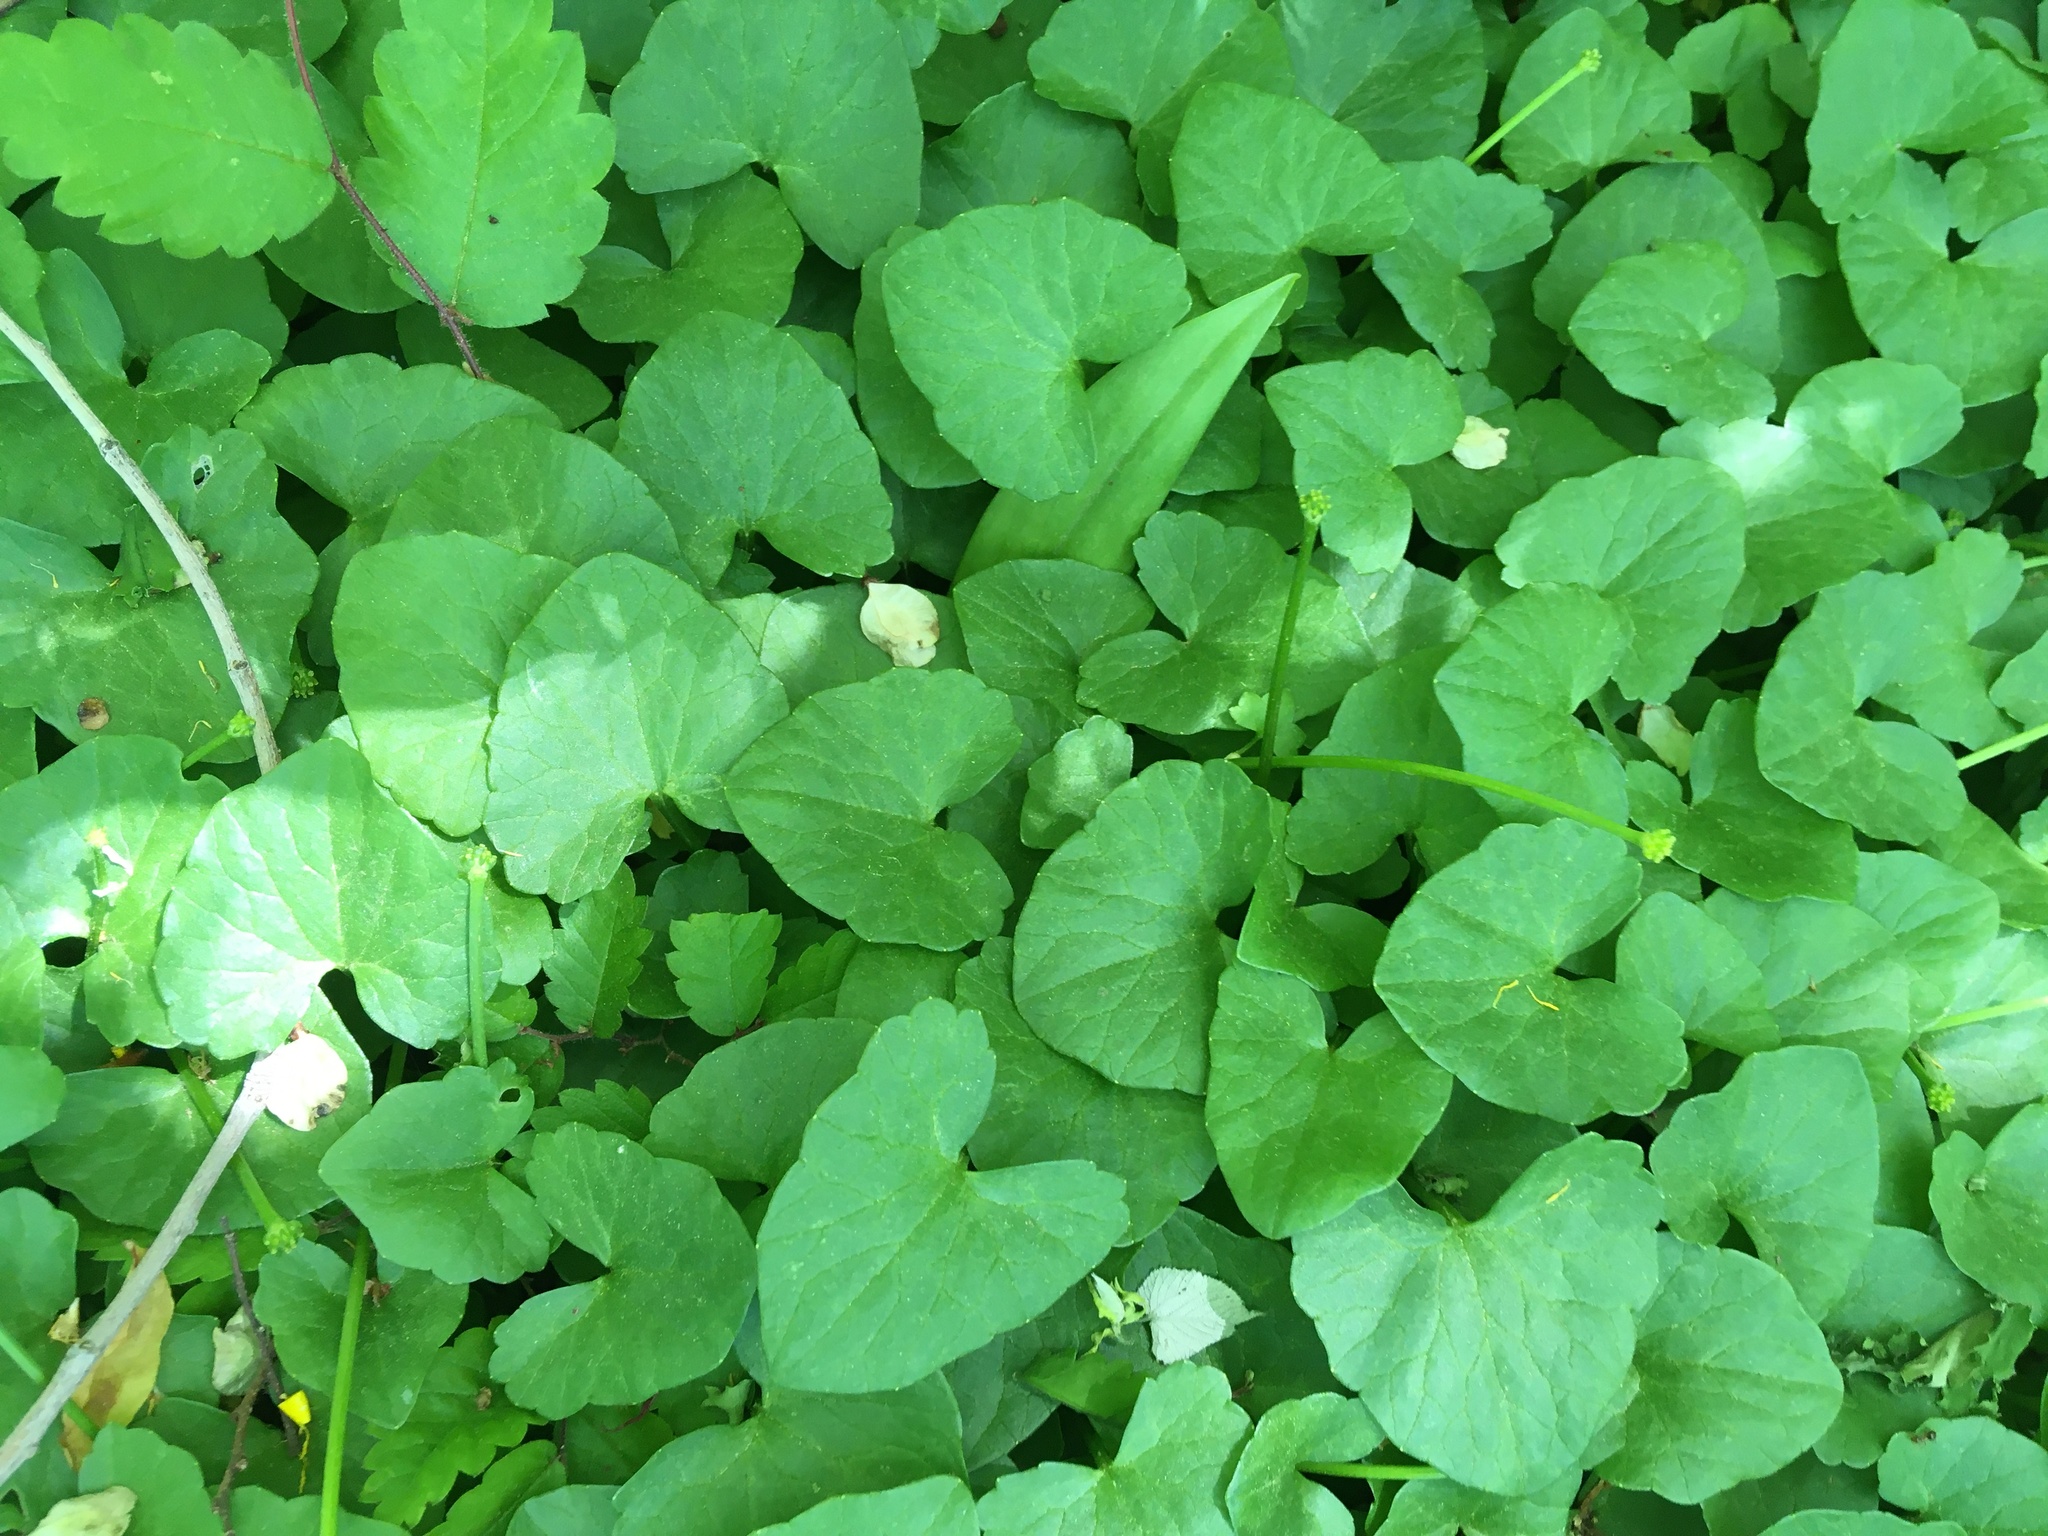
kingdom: Plantae
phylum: Tracheophyta
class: Magnoliopsida
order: Ranunculales
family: Ranunculaceae
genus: Ficaria
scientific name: Ficaria verna
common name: Lesser celandine
